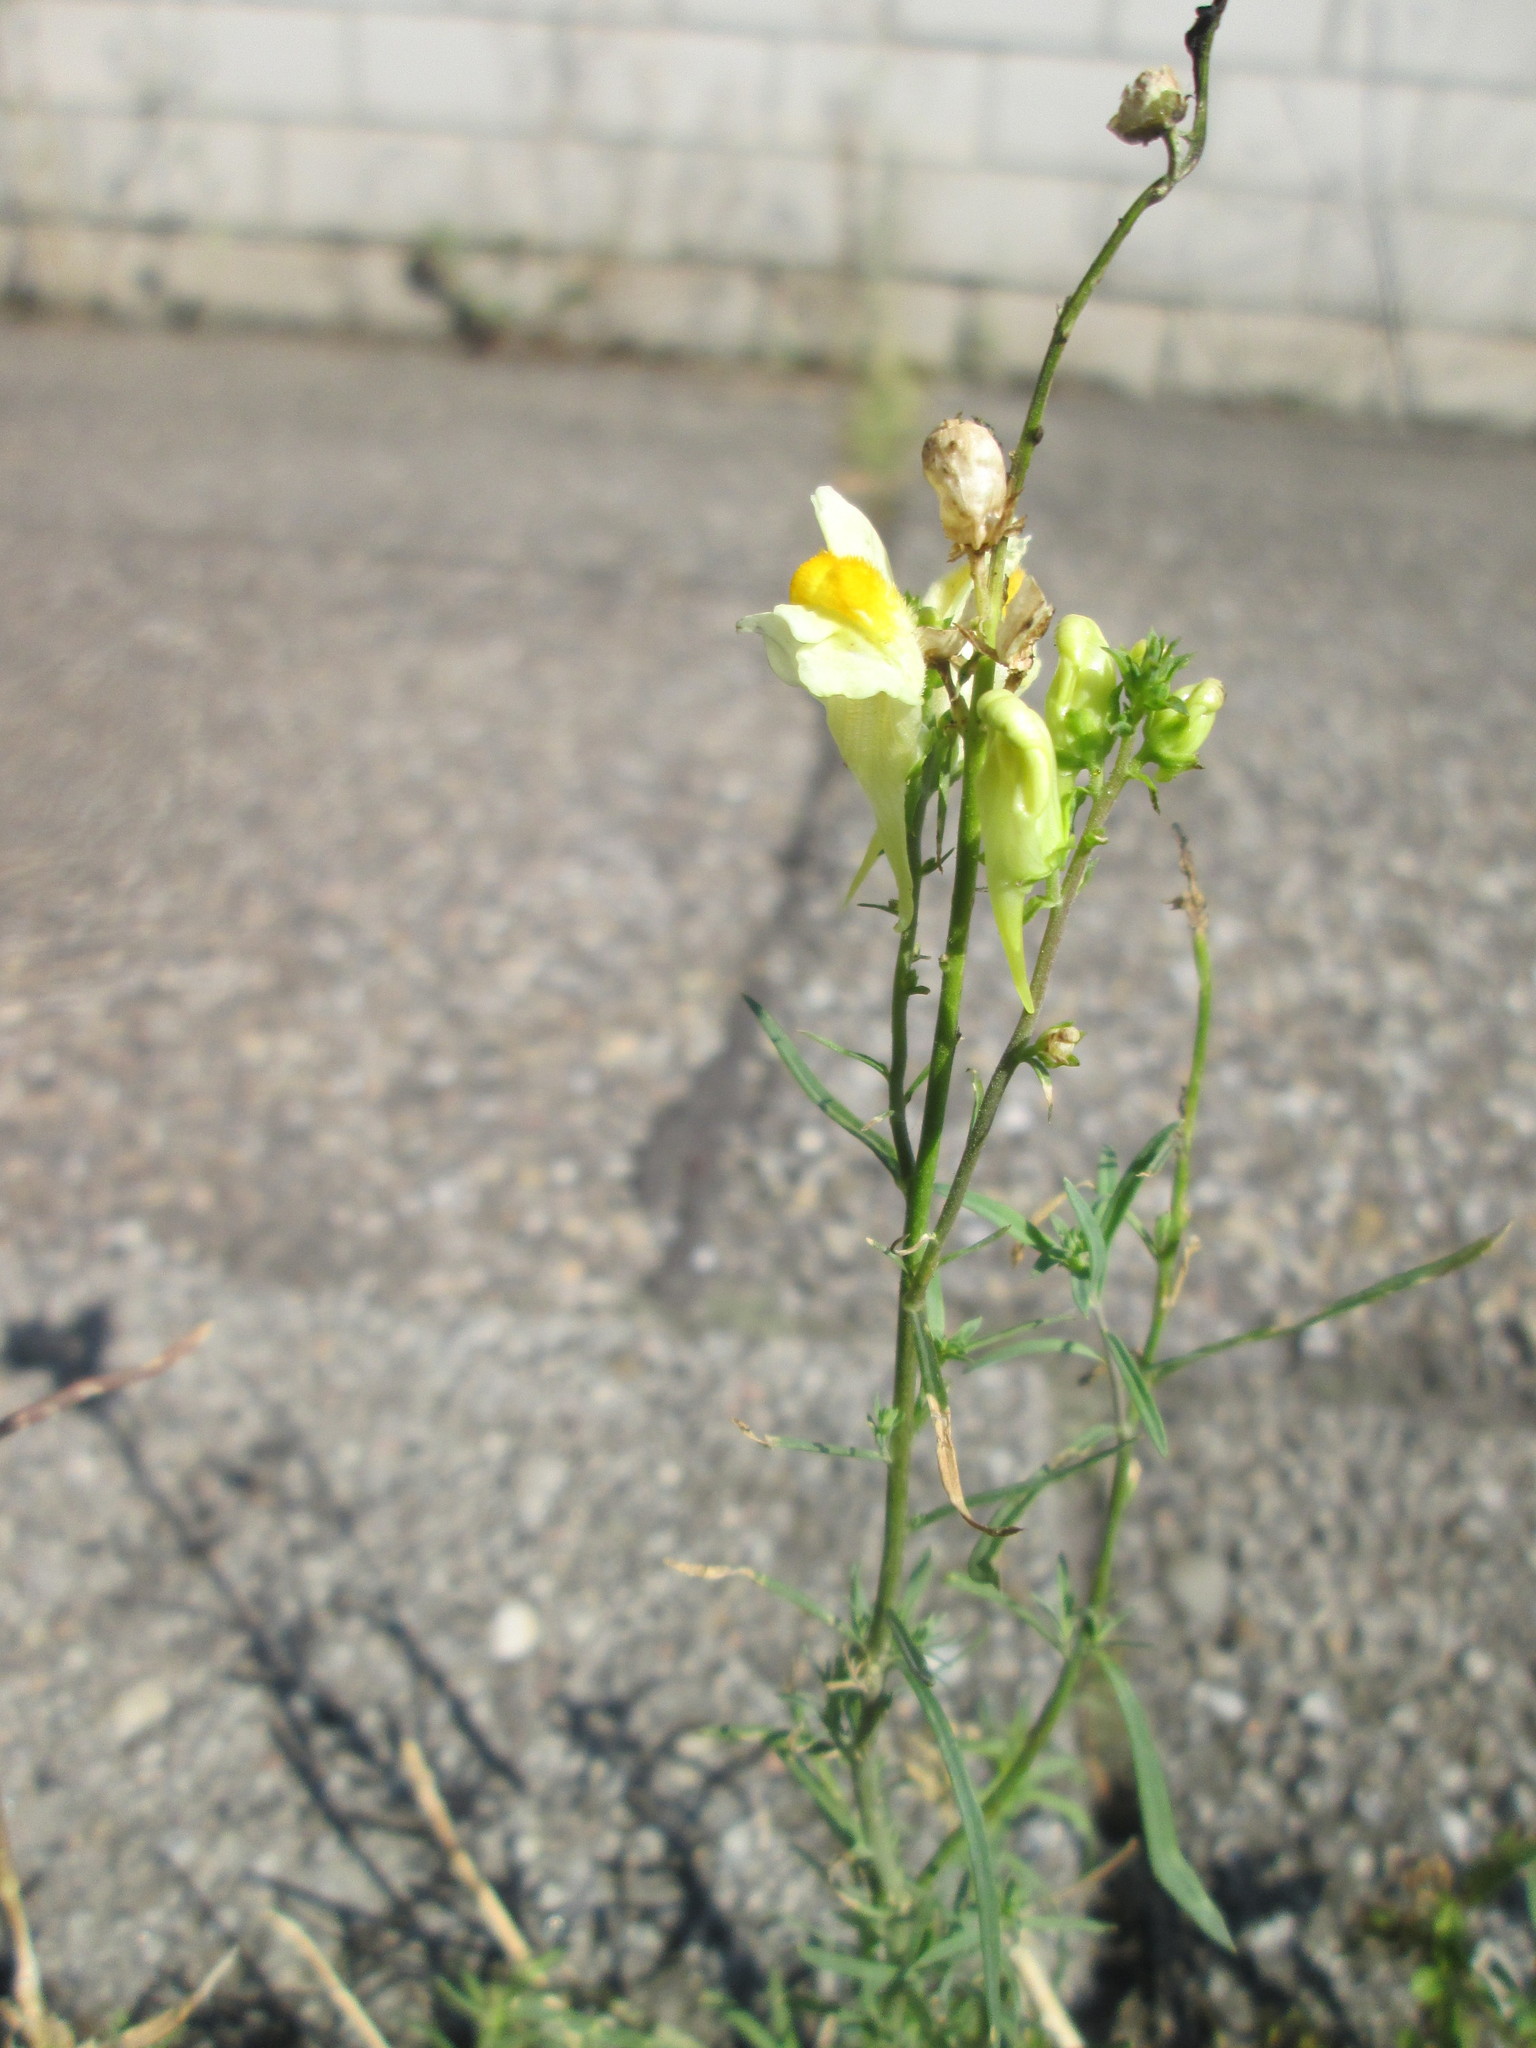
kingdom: Plantae
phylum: Tracheophyta
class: Magnoliopsida
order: Lamiales
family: Plantaginaceae
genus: Linaria
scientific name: Linaria vulgaris
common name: Butter and eggs
